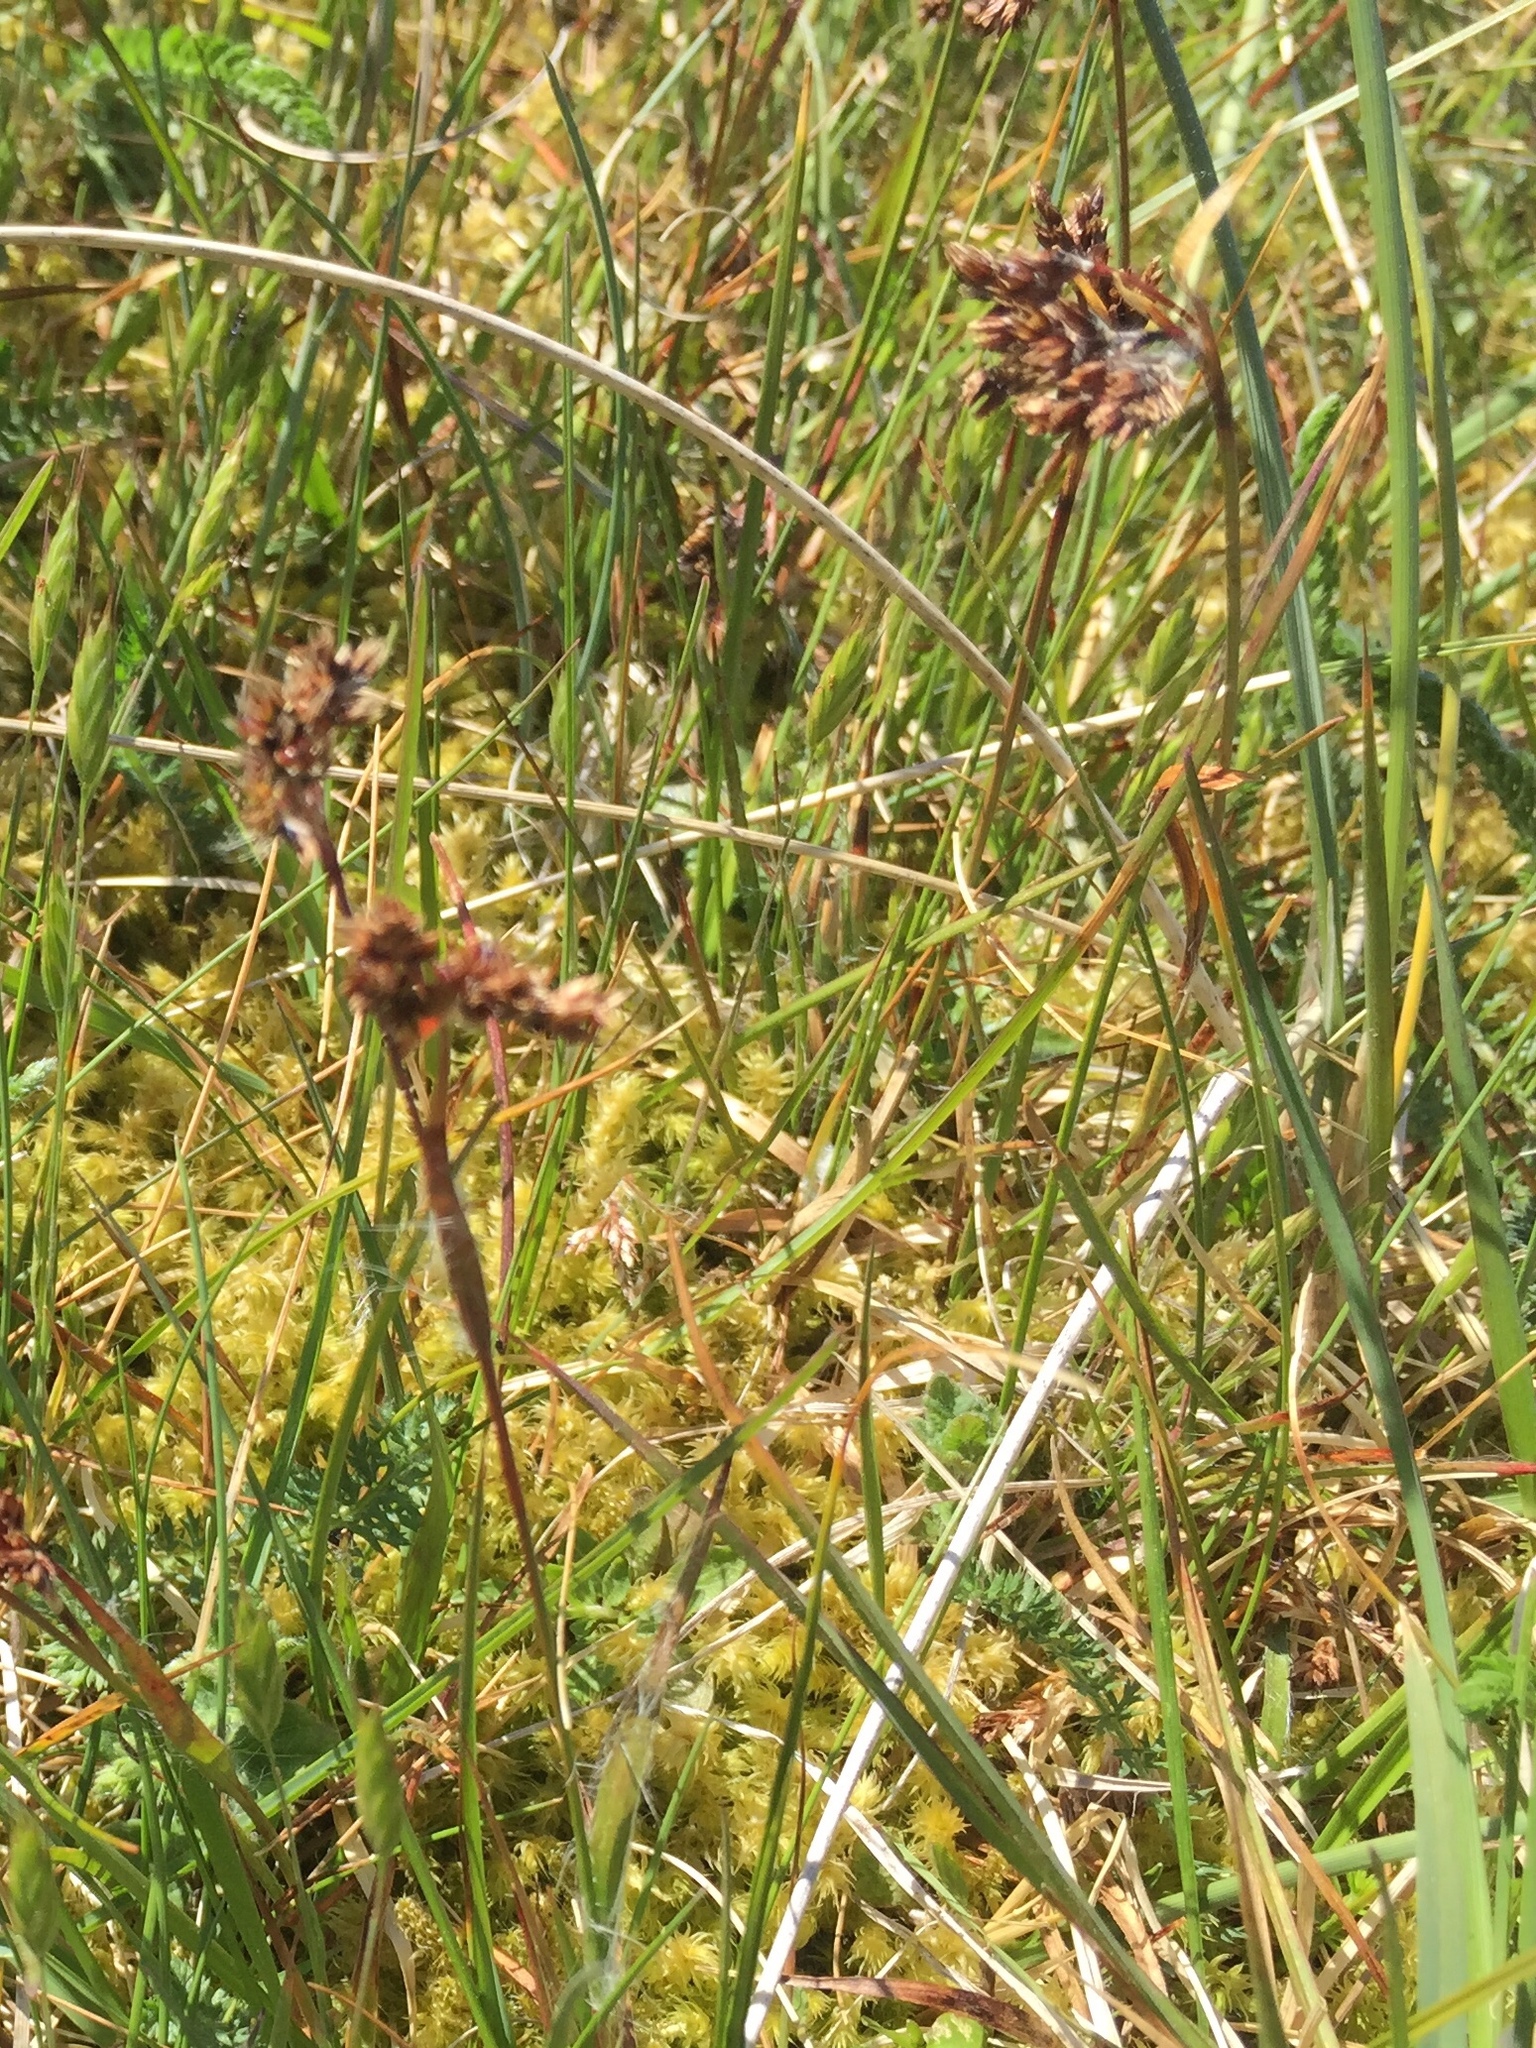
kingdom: Plantae
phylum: Tracheophyta
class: Liliopsida
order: Poales
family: Juncaceae
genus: Luzula
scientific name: Luzula campestris
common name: Field wood-rush
